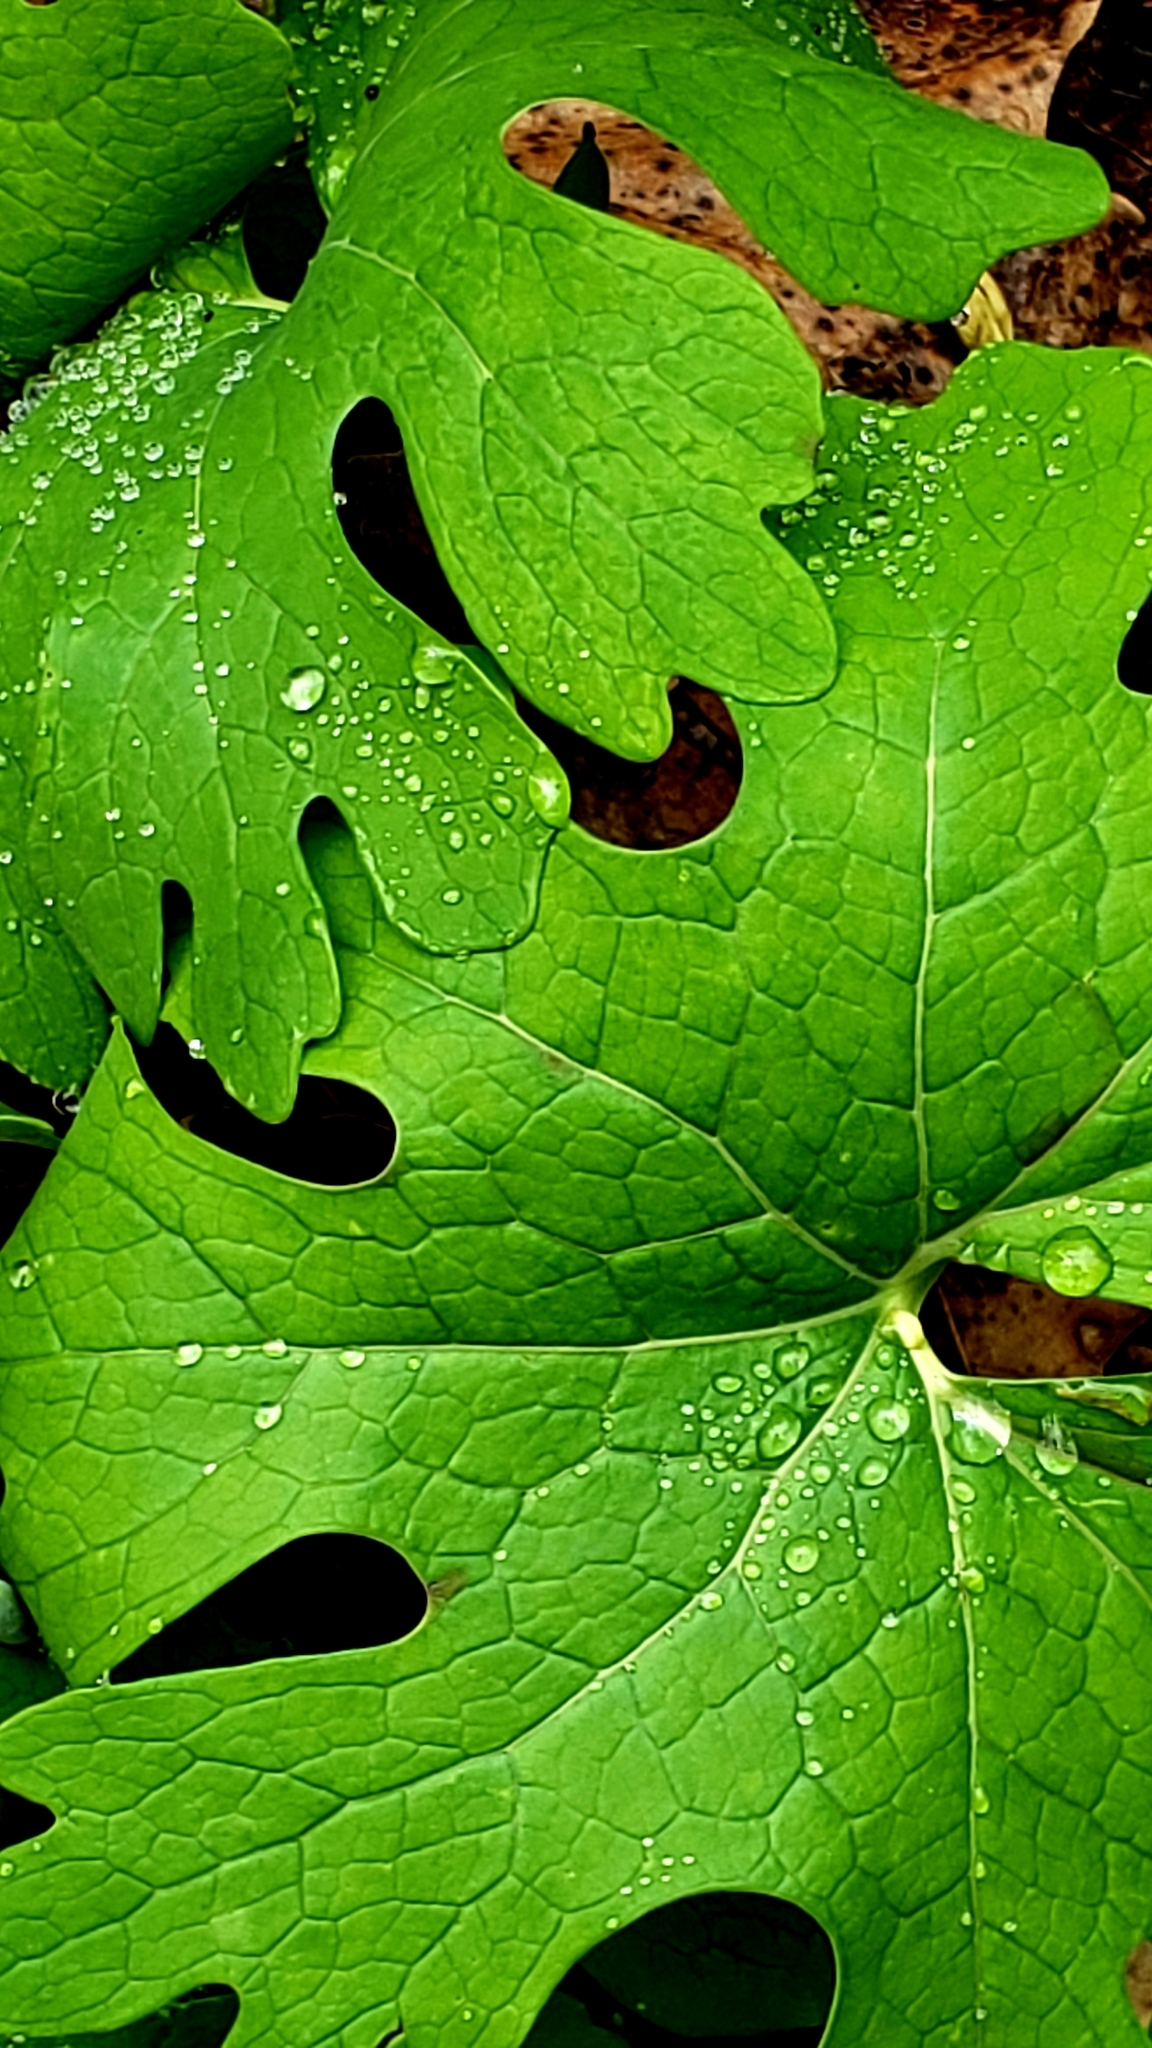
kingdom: Plantae
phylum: Tracheophyta
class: Magnoliopsida
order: Ranunculales
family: Papaveraceae
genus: Sanguinaria
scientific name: Sanguinaria canadensis
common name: Bloodroot
